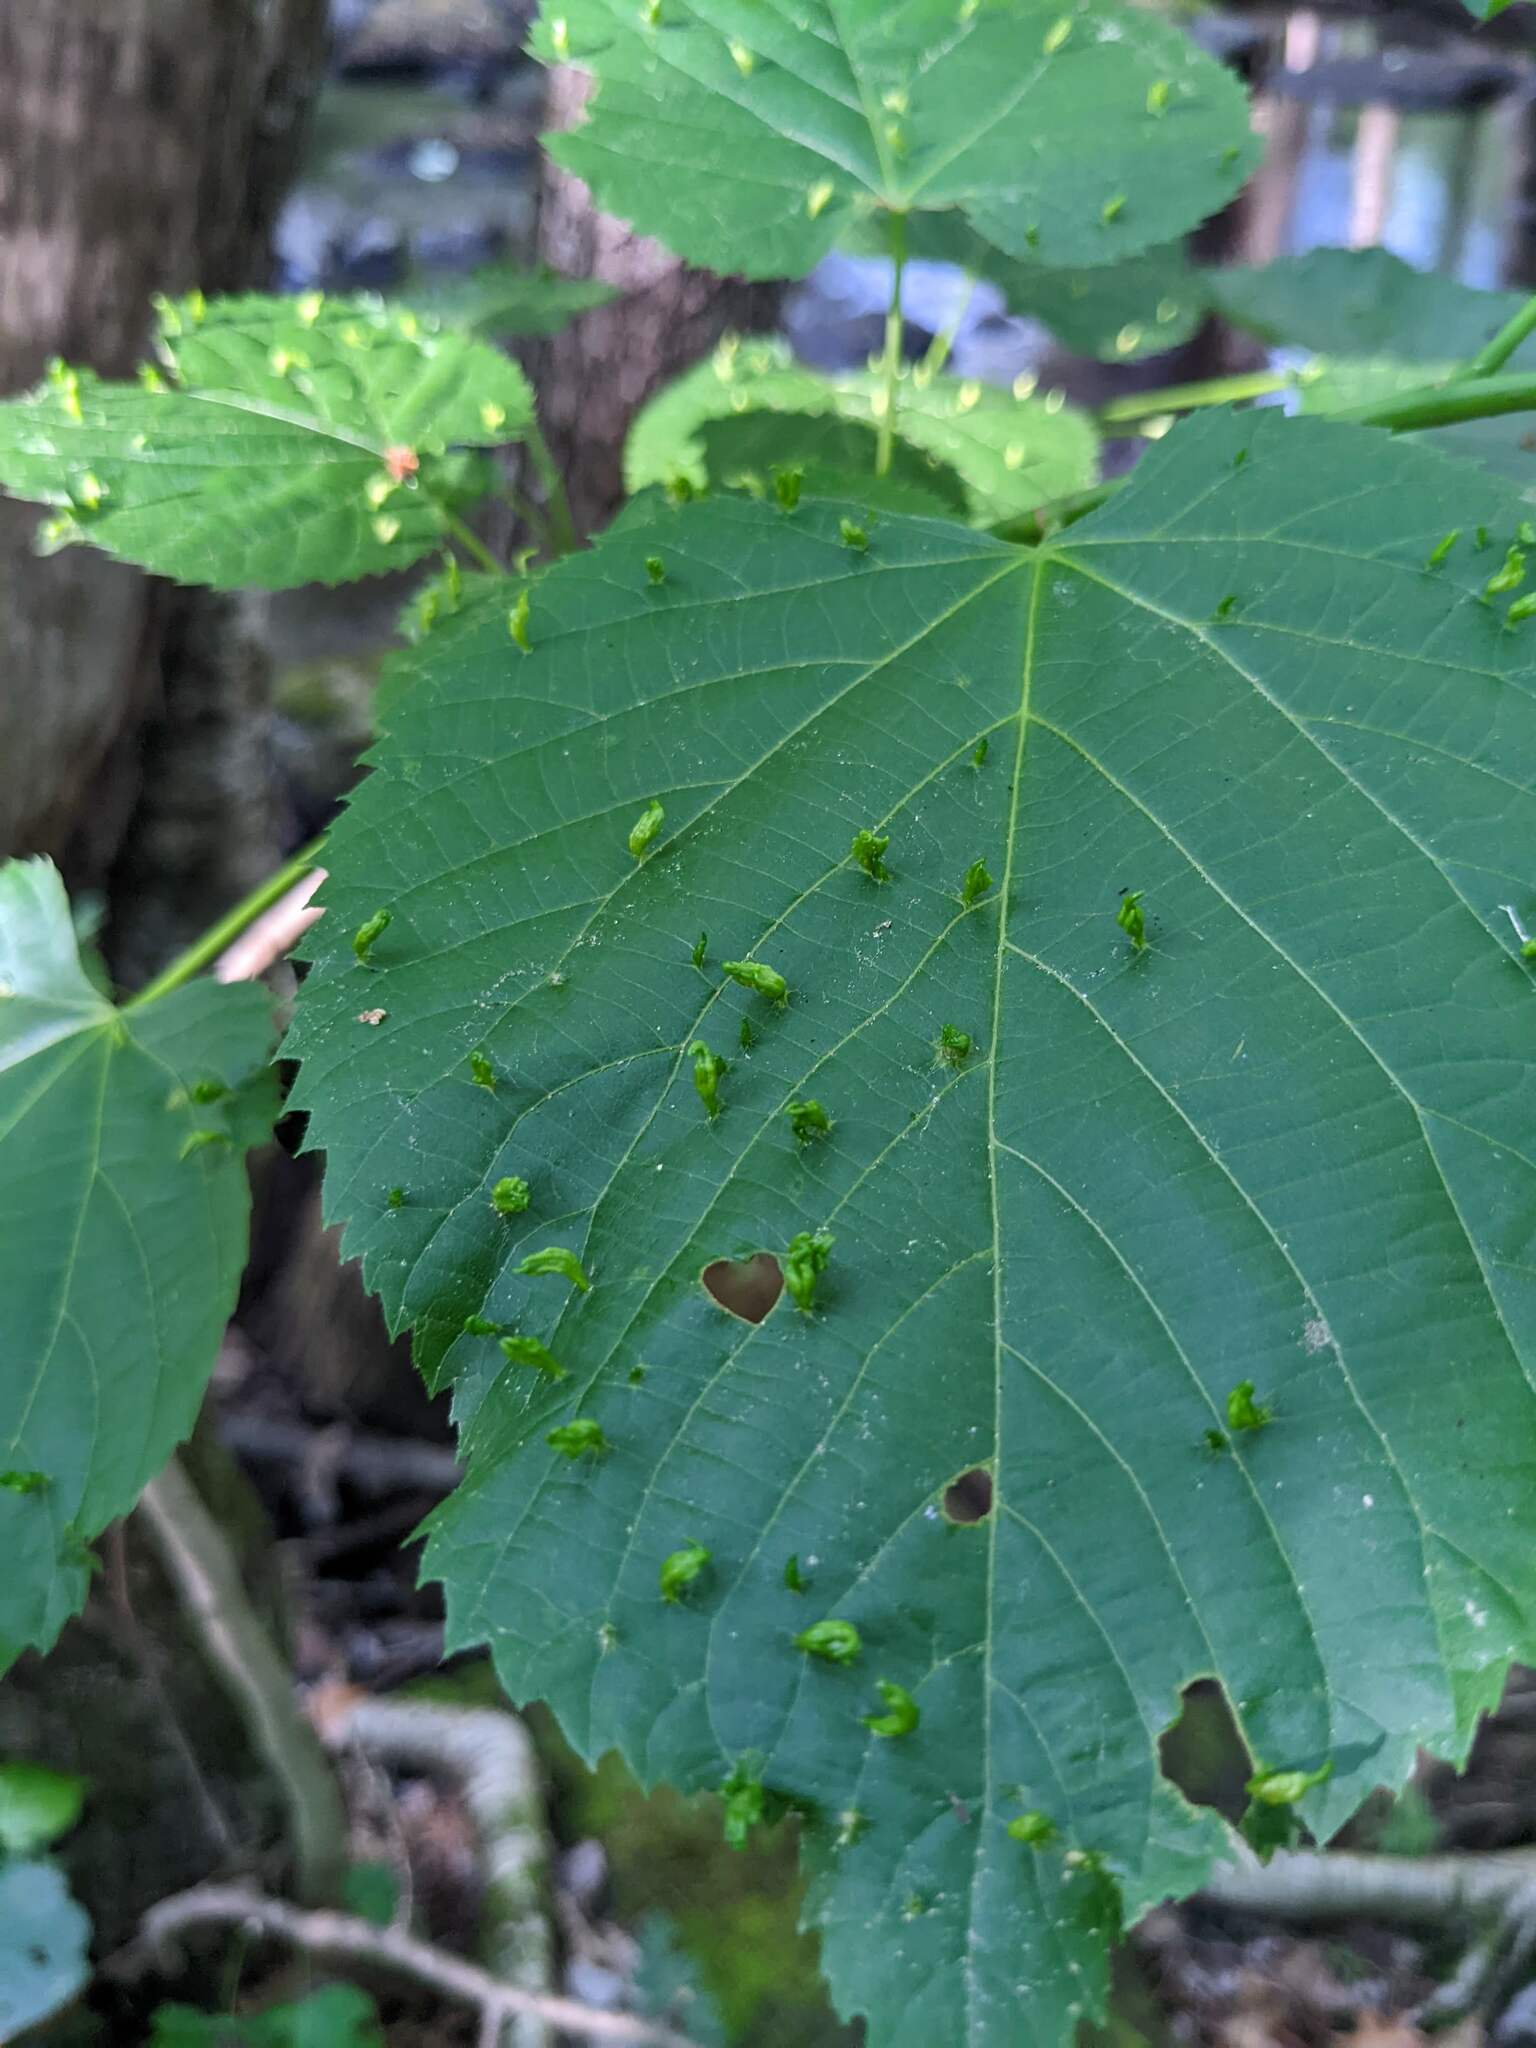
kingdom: Animalia
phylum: Arthropoda
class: Arachnida
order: Trombidiformes
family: Eriophyidae
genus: Eriophyes
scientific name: Eriophyes tiliae
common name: Red nail gall mite
